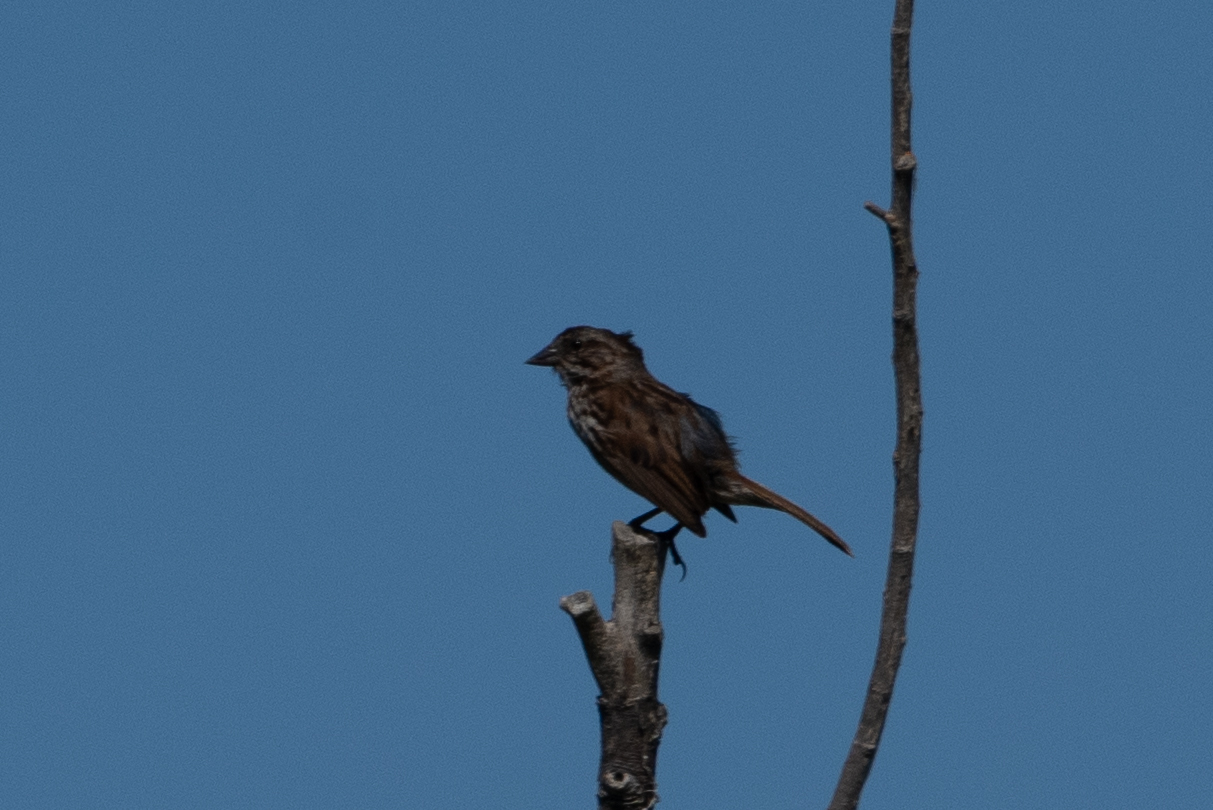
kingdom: Animalia
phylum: Chordata
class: Aves
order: Passeriformes
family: Passerellidae
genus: Melospiza
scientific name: Melospiza melodia
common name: Song sparrow
